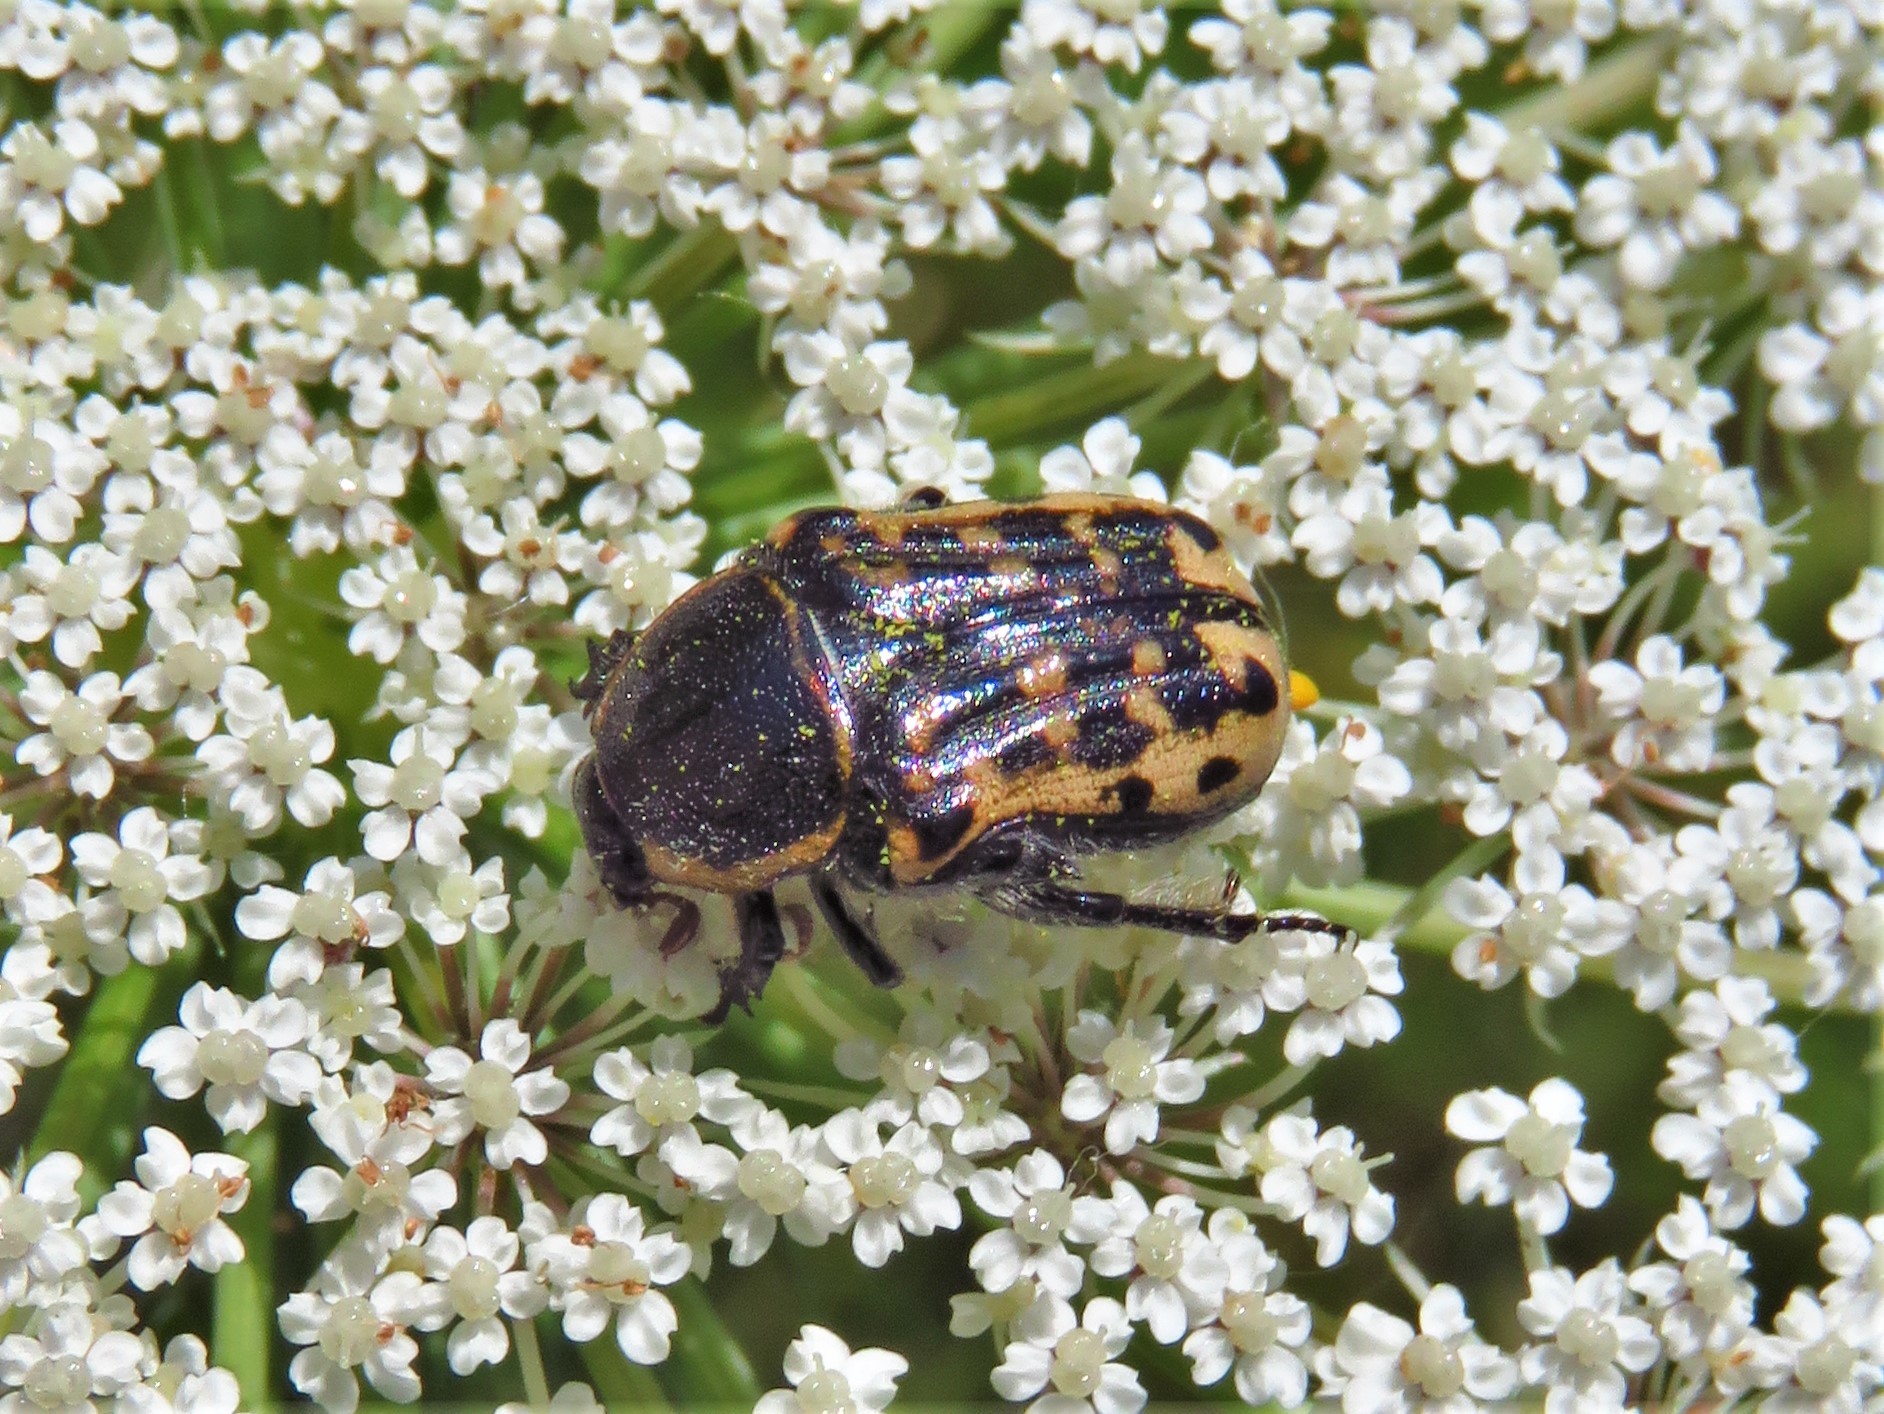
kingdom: Animalia
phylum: Arthropoda
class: Insecta
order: Coleoptera
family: Scarabaeidae
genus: Euphoria
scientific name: Euphoria kernii
